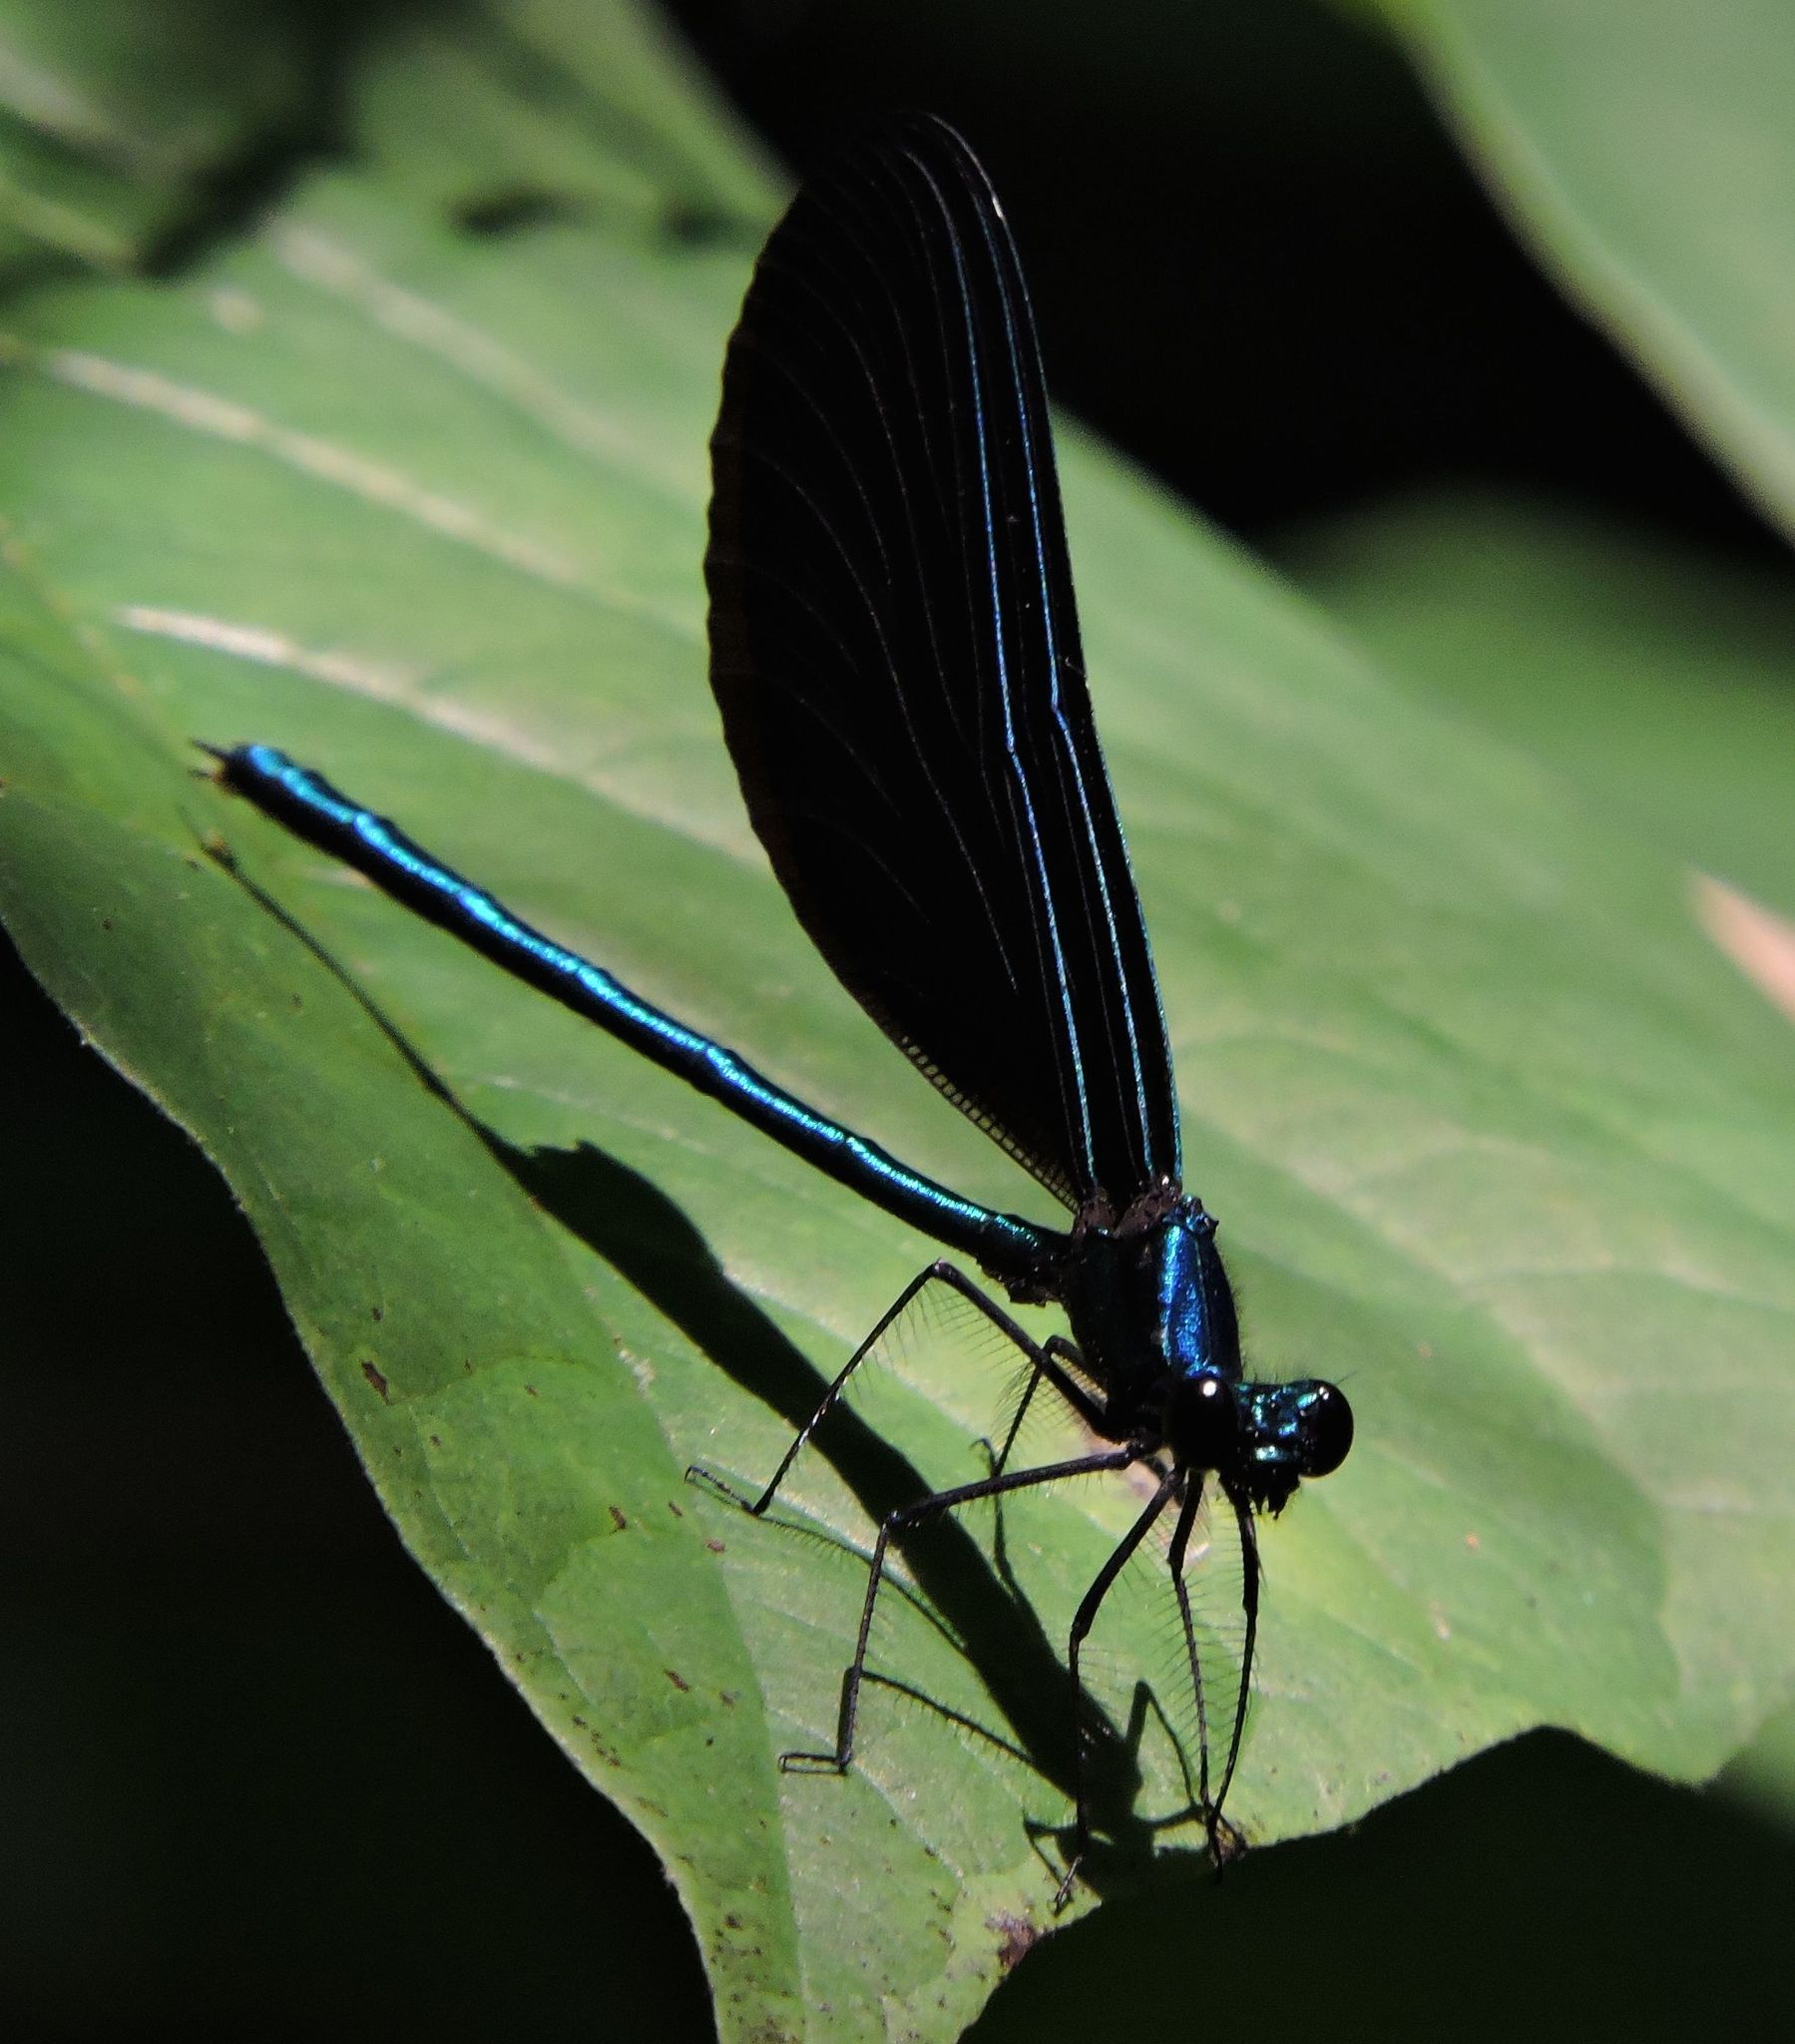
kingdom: Animalia
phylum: Arthropoda
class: Insecta
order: Odonata
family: Calopterygidae
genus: Calopteryx
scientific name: Calopteryx maculata
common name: Ebony jewelwing
